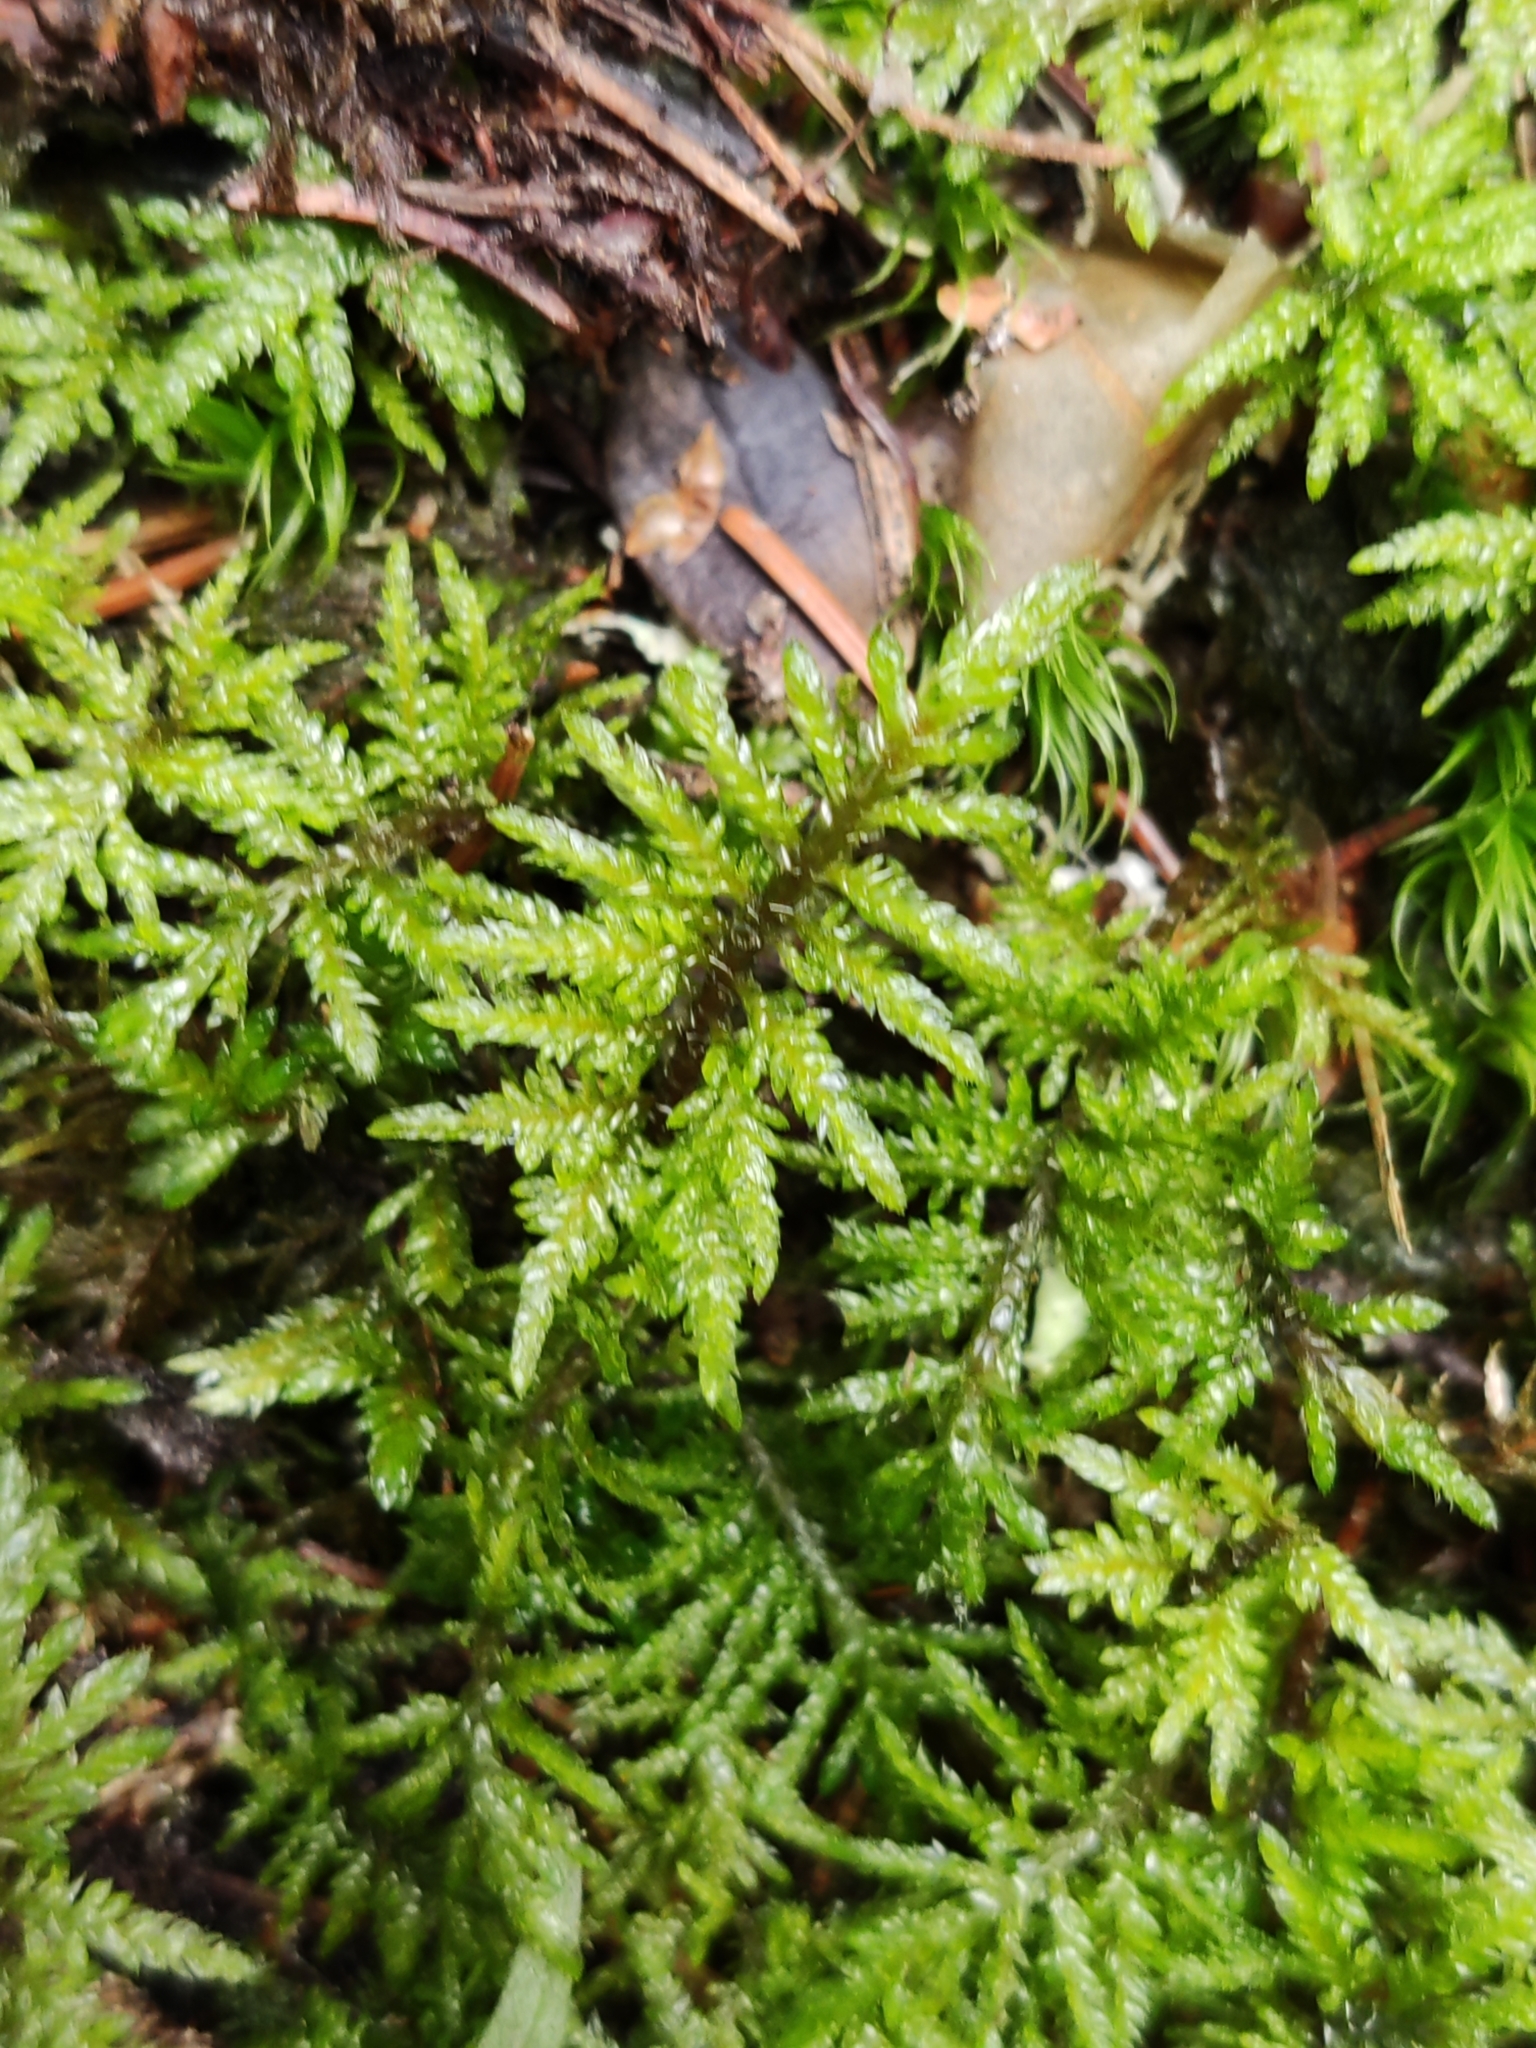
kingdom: Plantae
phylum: Bryophyta
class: Bryopsida
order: Hypnales
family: Hylocomiaceae
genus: Hylocomium
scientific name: Hylocomium splendens
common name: Stairstep moss
